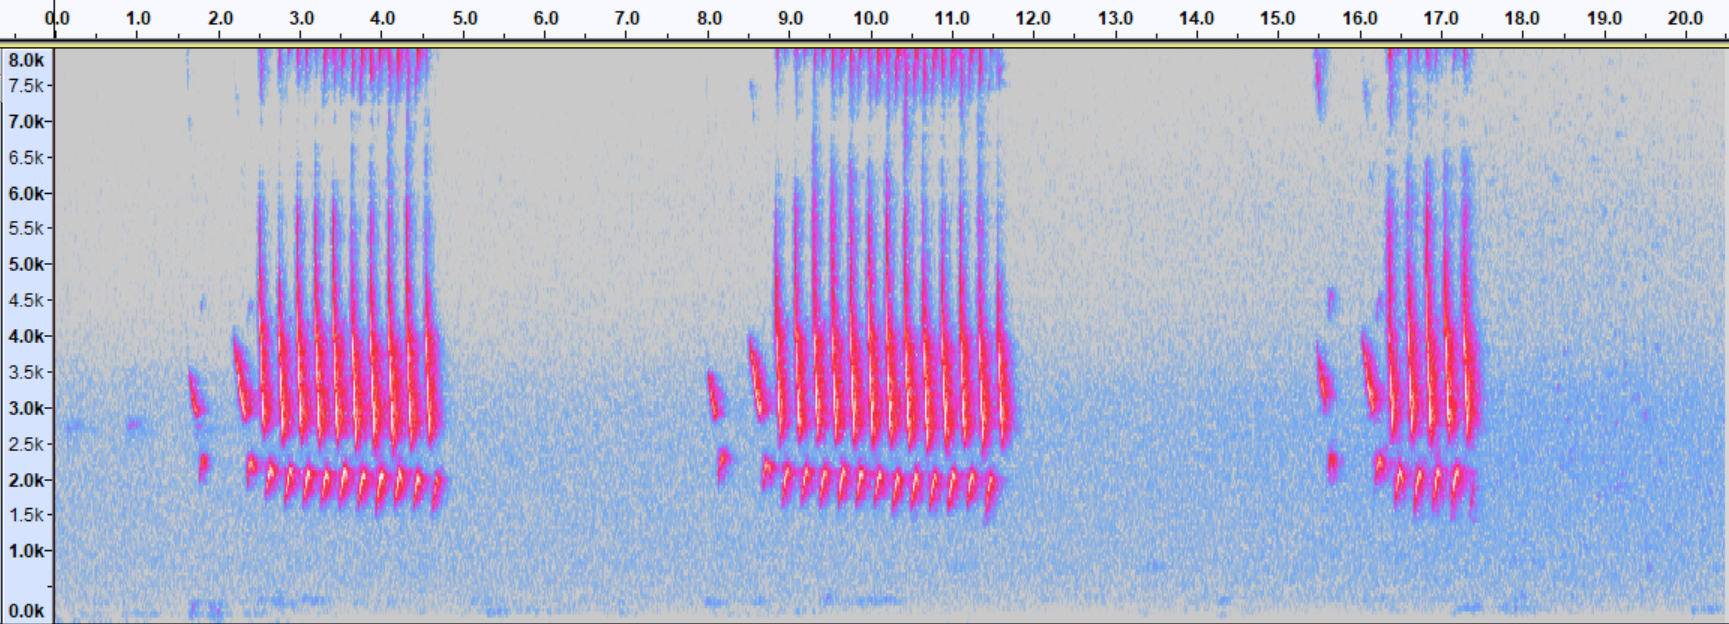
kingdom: Animalia
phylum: Chordata
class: Aves
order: Passeriformes
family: Cardinalidae
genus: Cardinalis
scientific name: Cardinalis cardinalis
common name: Northern cardinal
